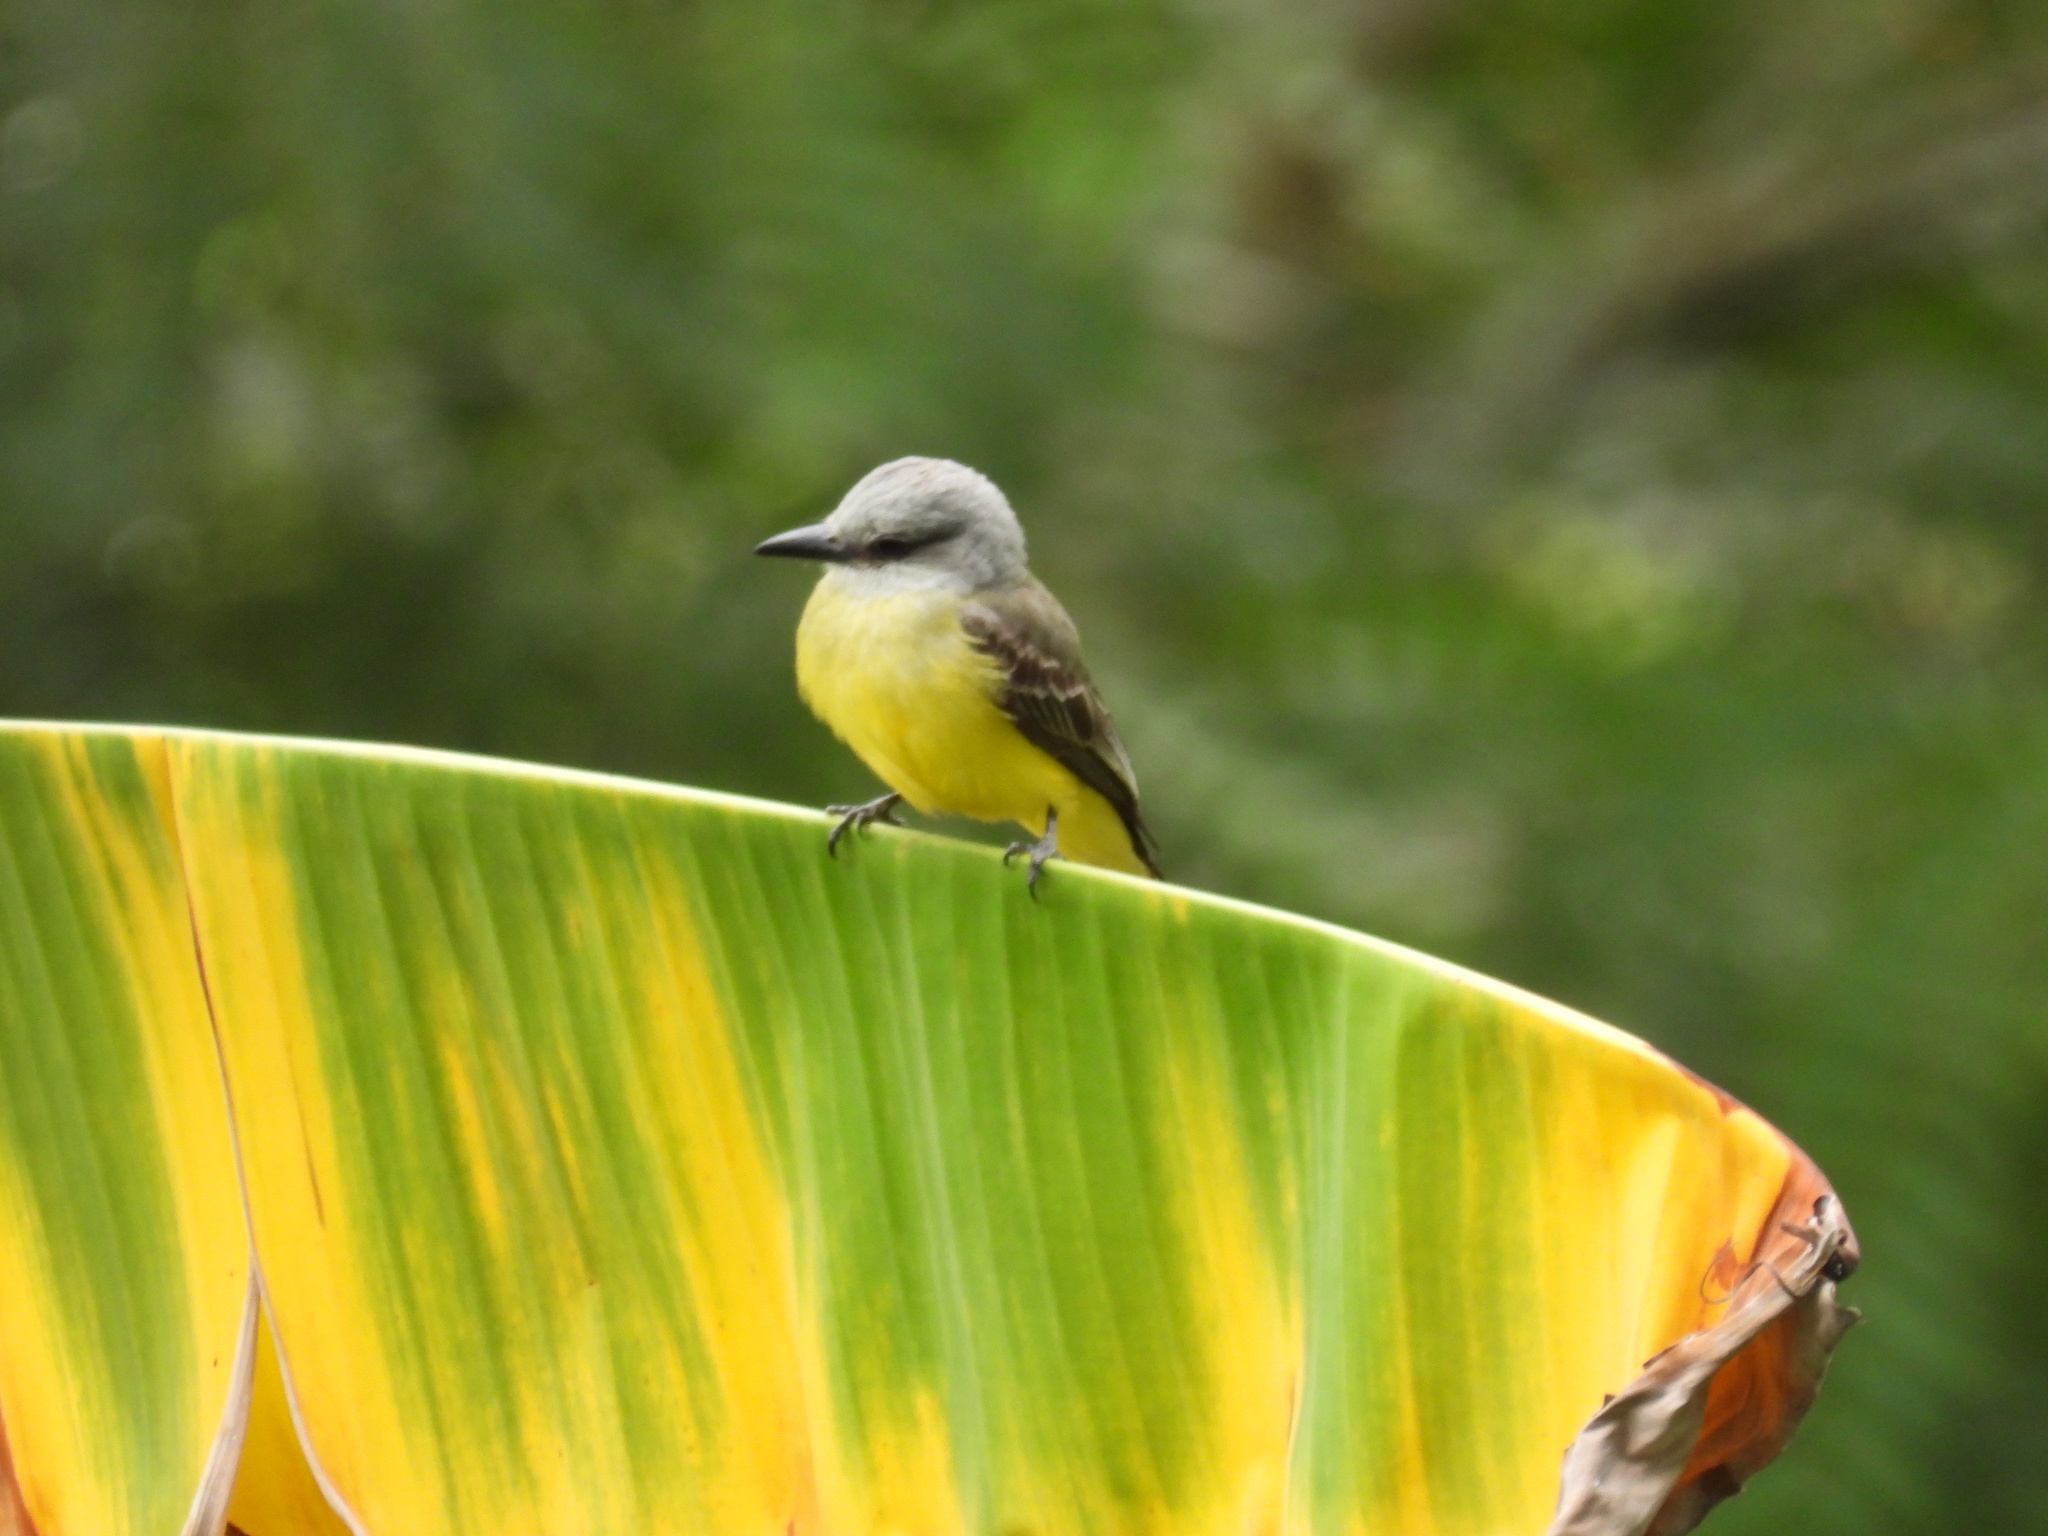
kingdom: Animalia
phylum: Chordata
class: Aves
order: Passeriformes
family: Tyrannidae
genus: Tyrannus
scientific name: Tyrannus melancholicus
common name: Tropical kingbird
